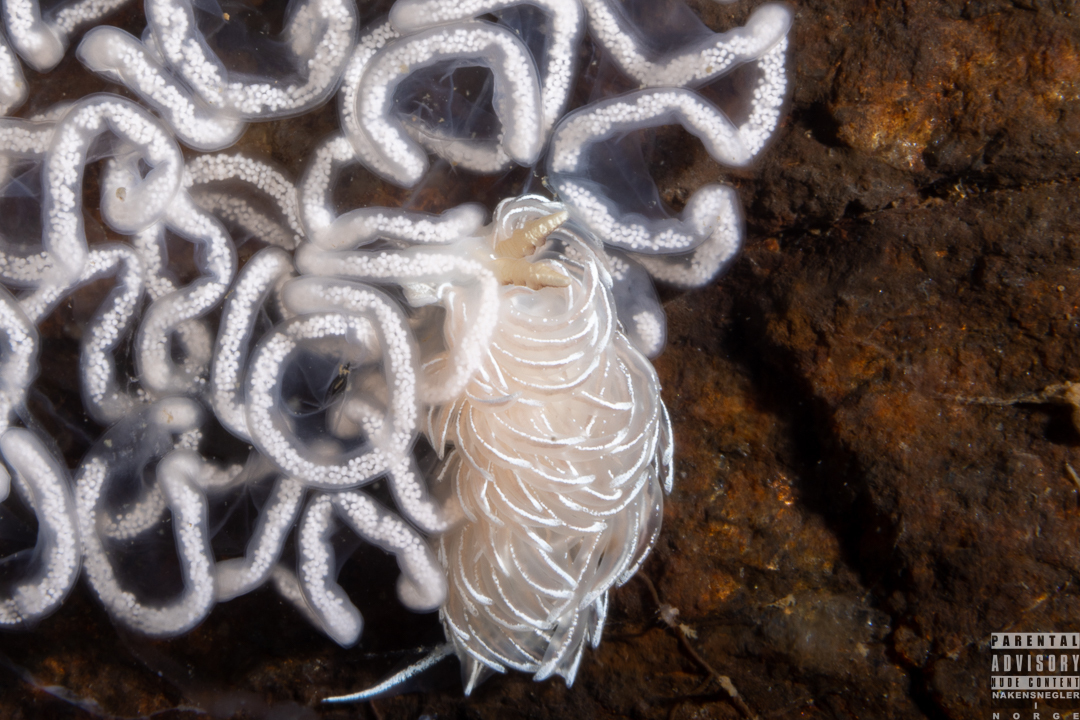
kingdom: Animalia
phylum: Mollusca
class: Gastropoda
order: Nudibranchia
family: Facelinidae
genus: Favorinus
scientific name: Favorinus blianus
